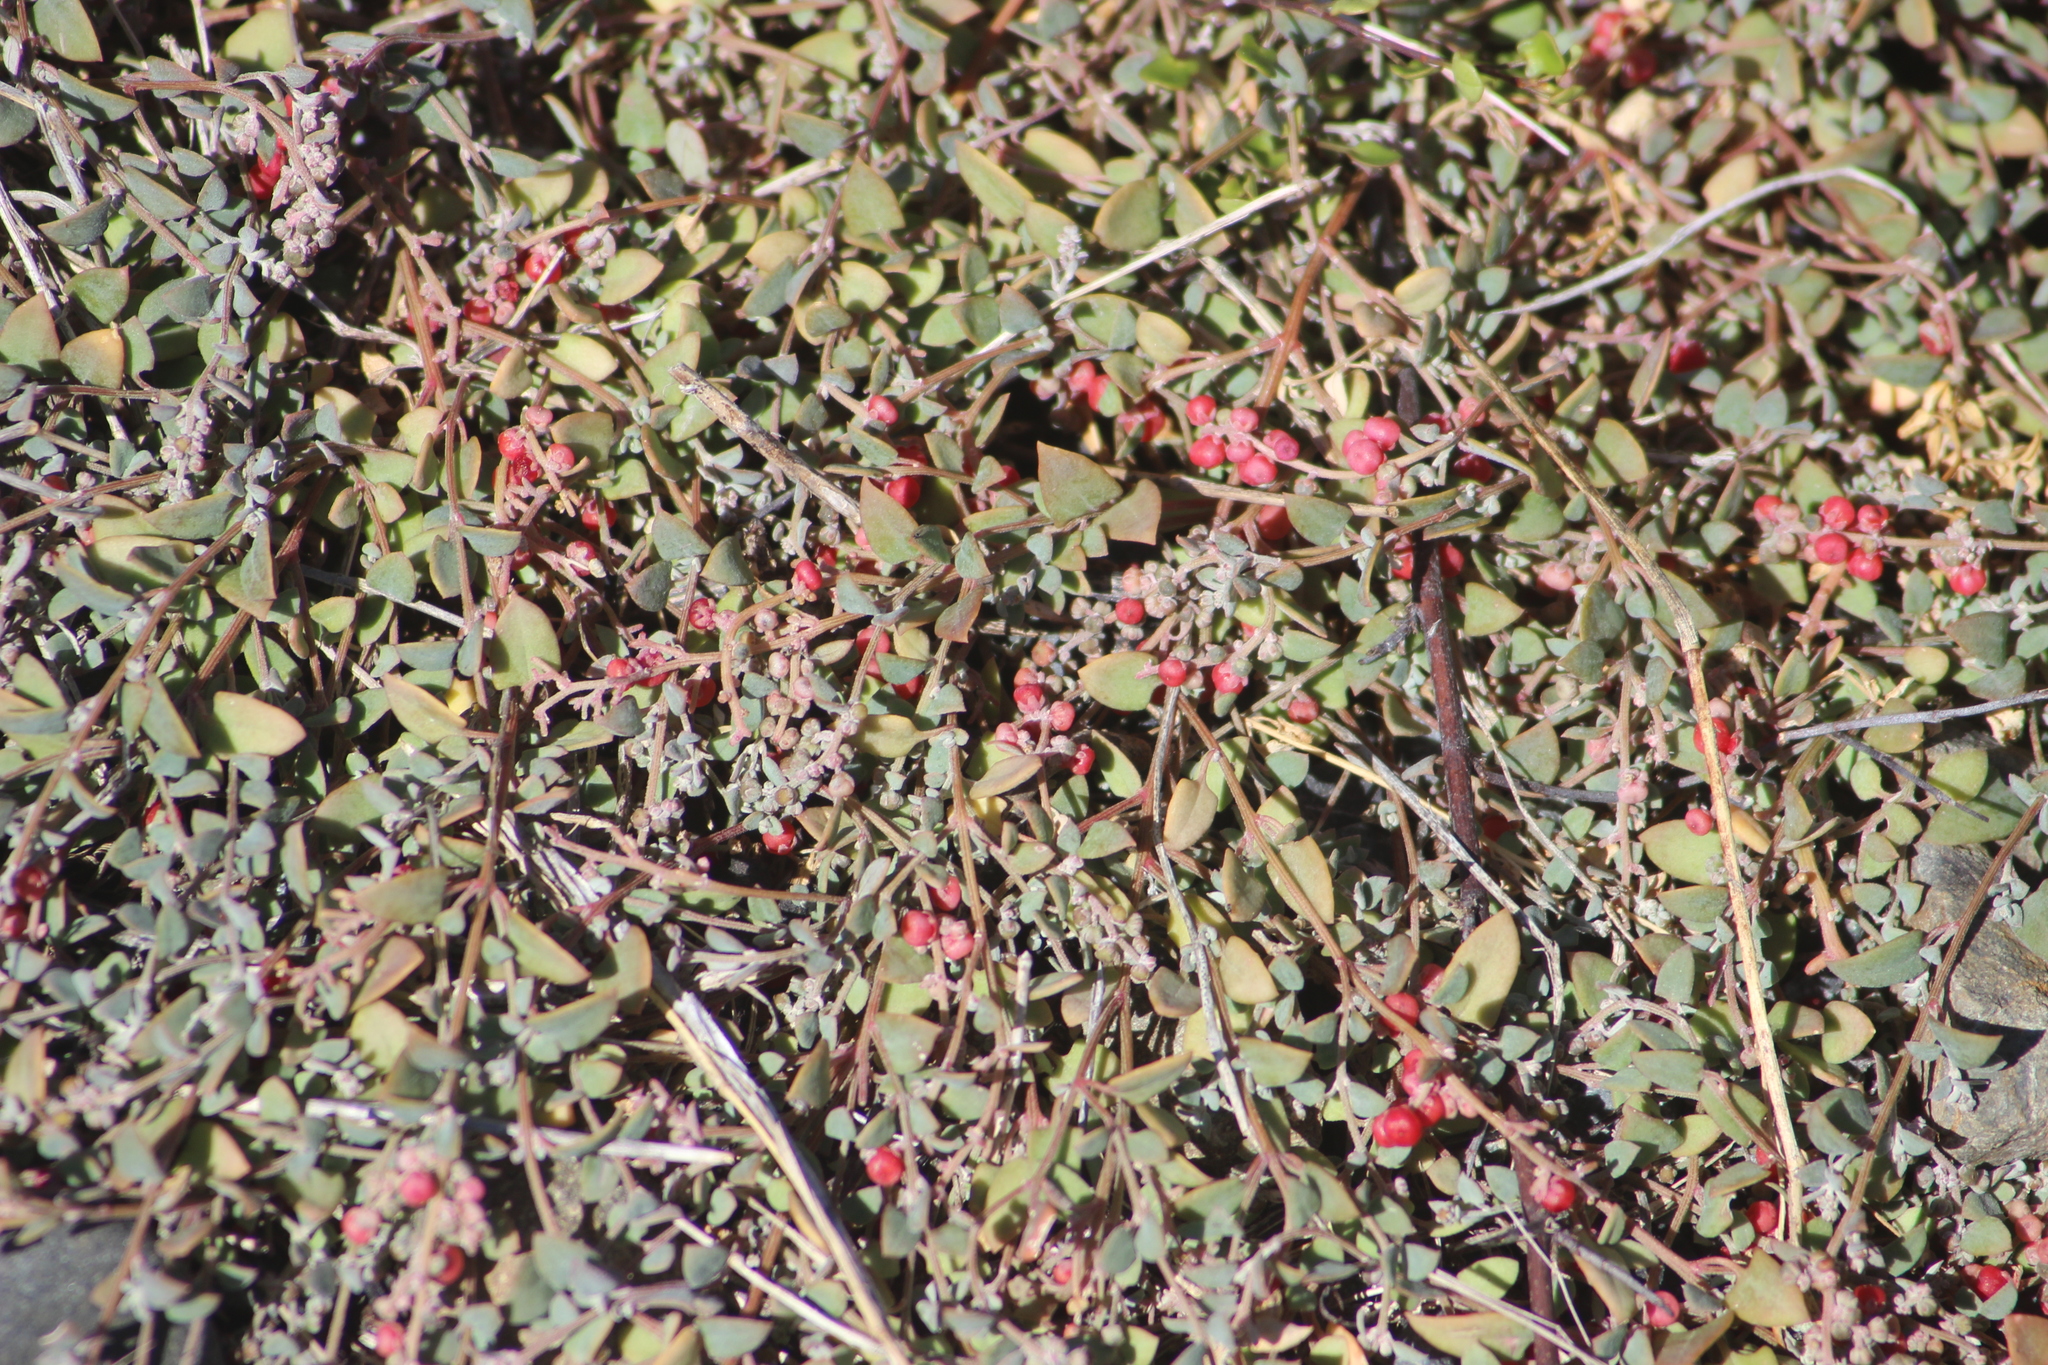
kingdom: Plantae
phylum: Tracheophyta
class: Magnoliopsida
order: Caryophyllales
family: Amaranthaceae
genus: Chenopodium
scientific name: Chenopodium triandrum
